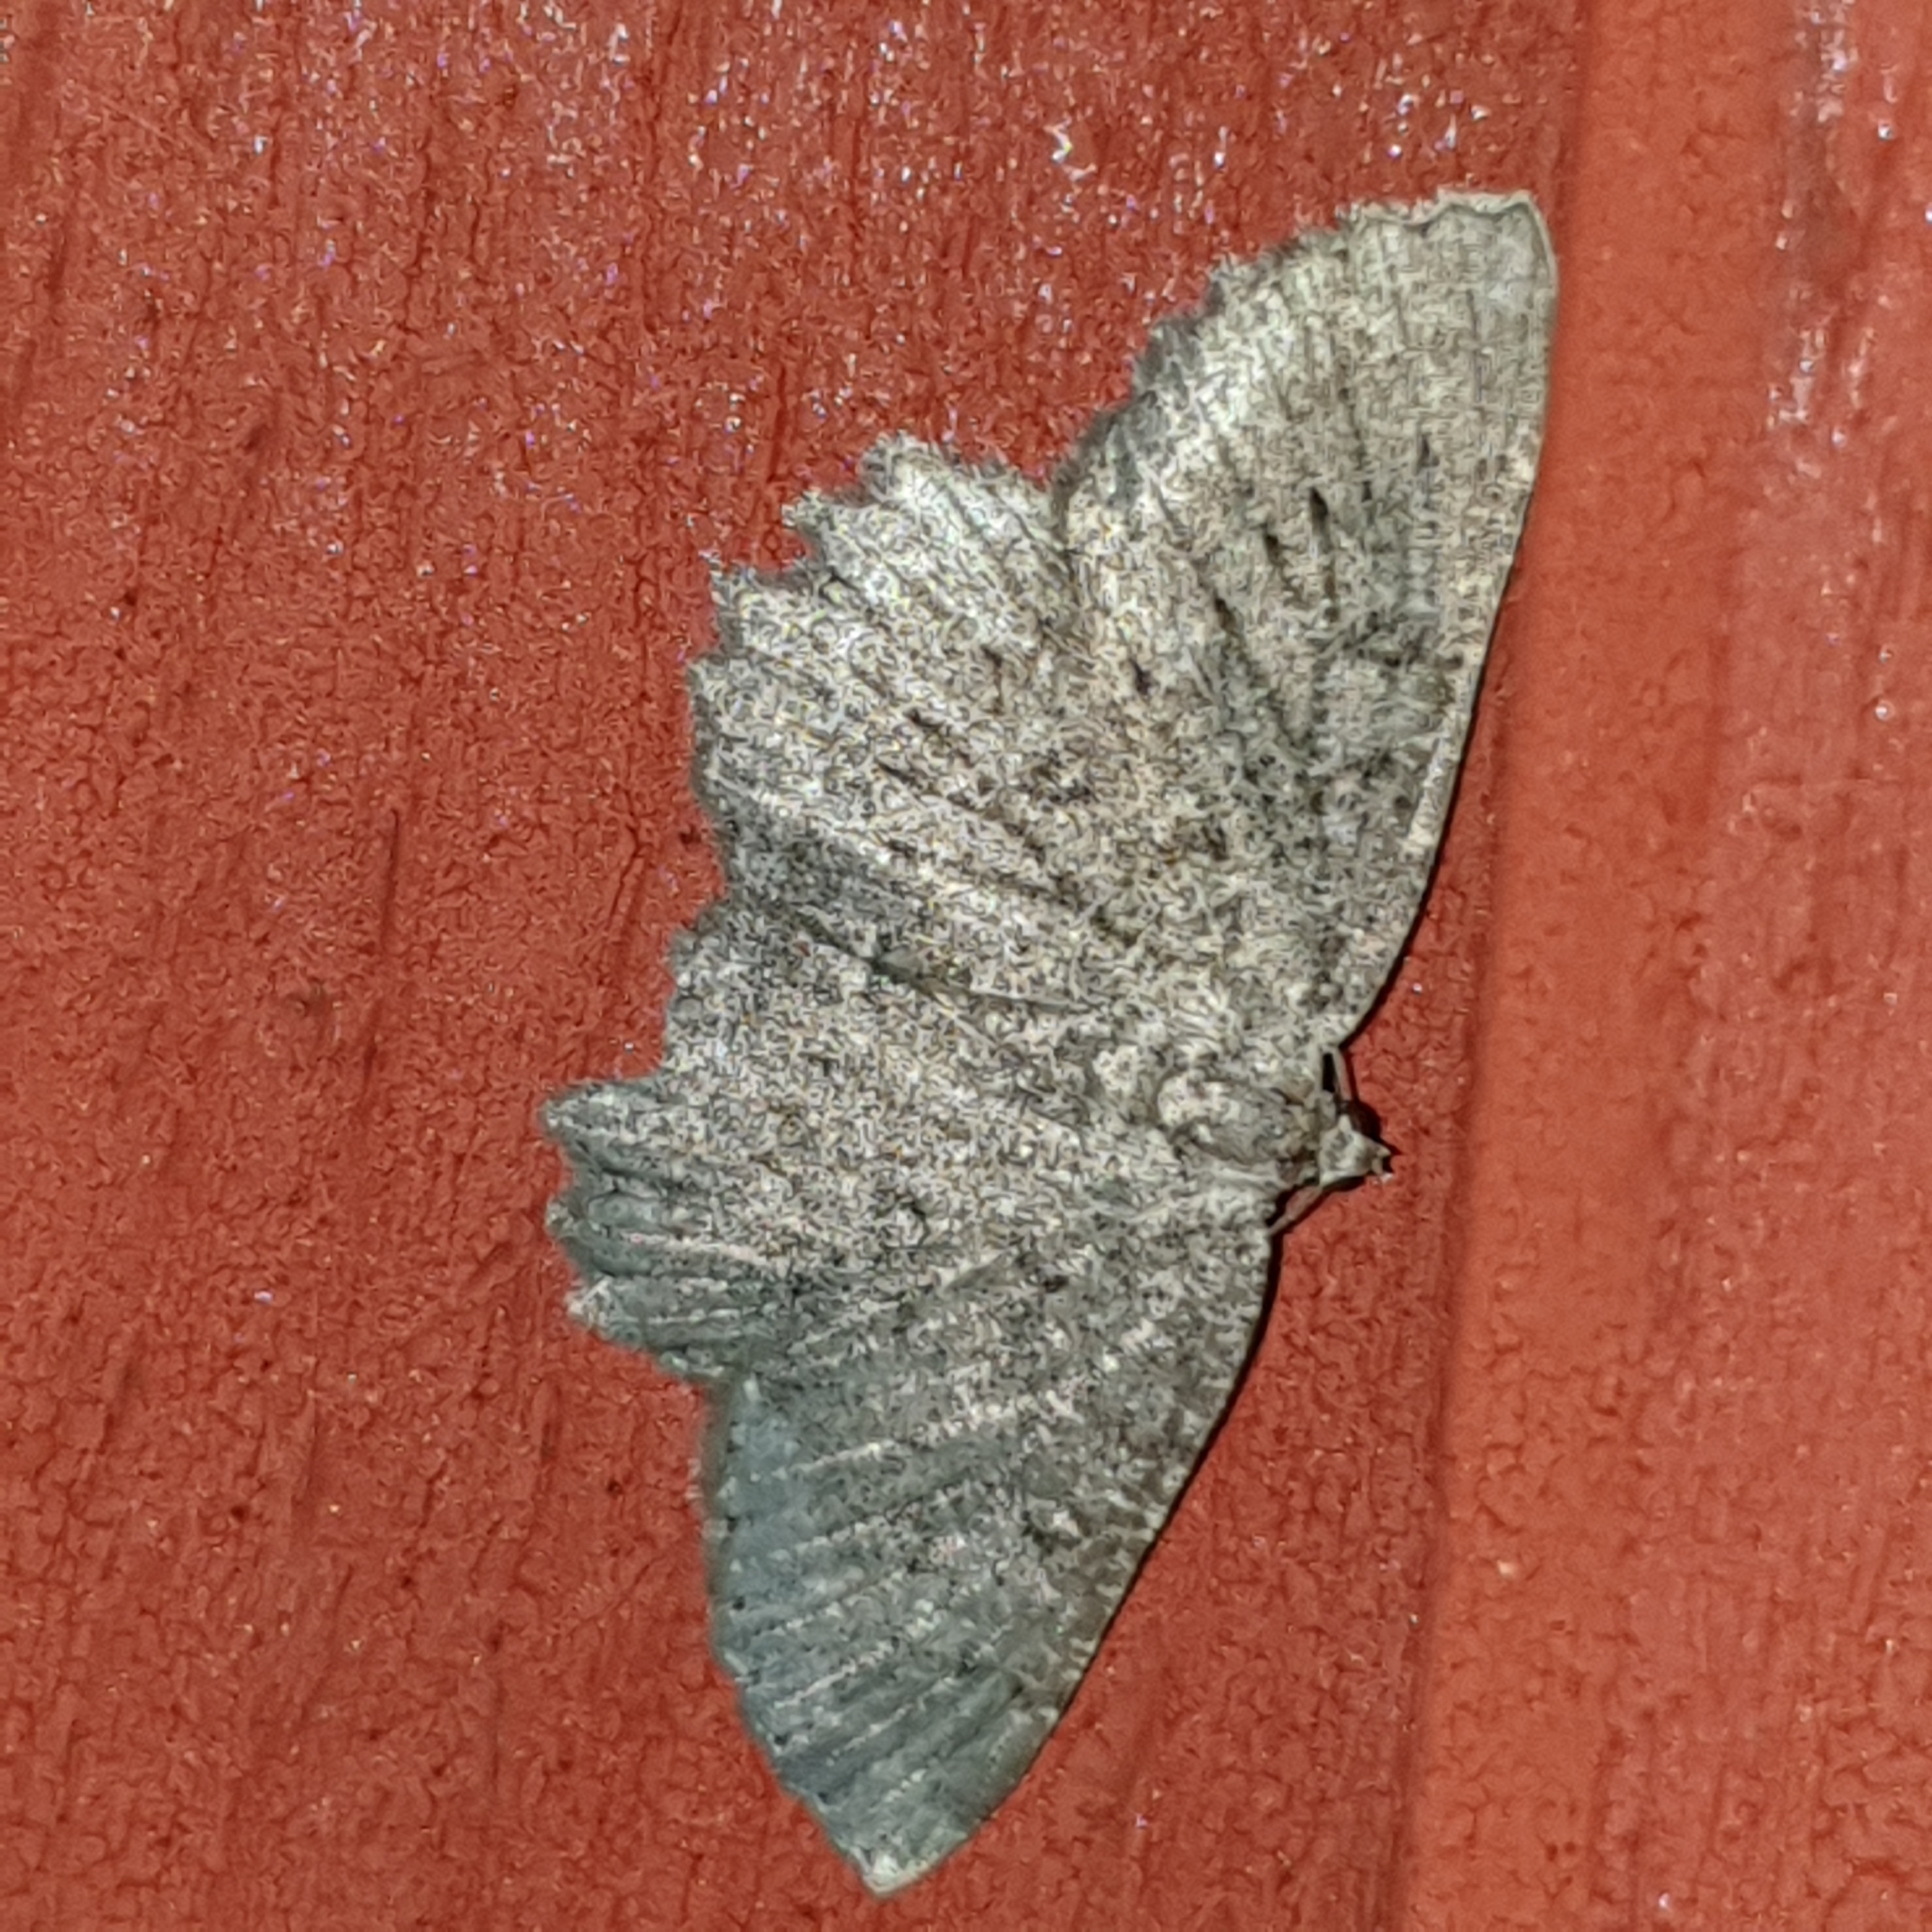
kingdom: Animalia
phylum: Arthropoda
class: Insecta
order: Lepidoptera
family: Geometridae
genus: Gnophos
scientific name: Gnophos obfuscata
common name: Scottish annulet
